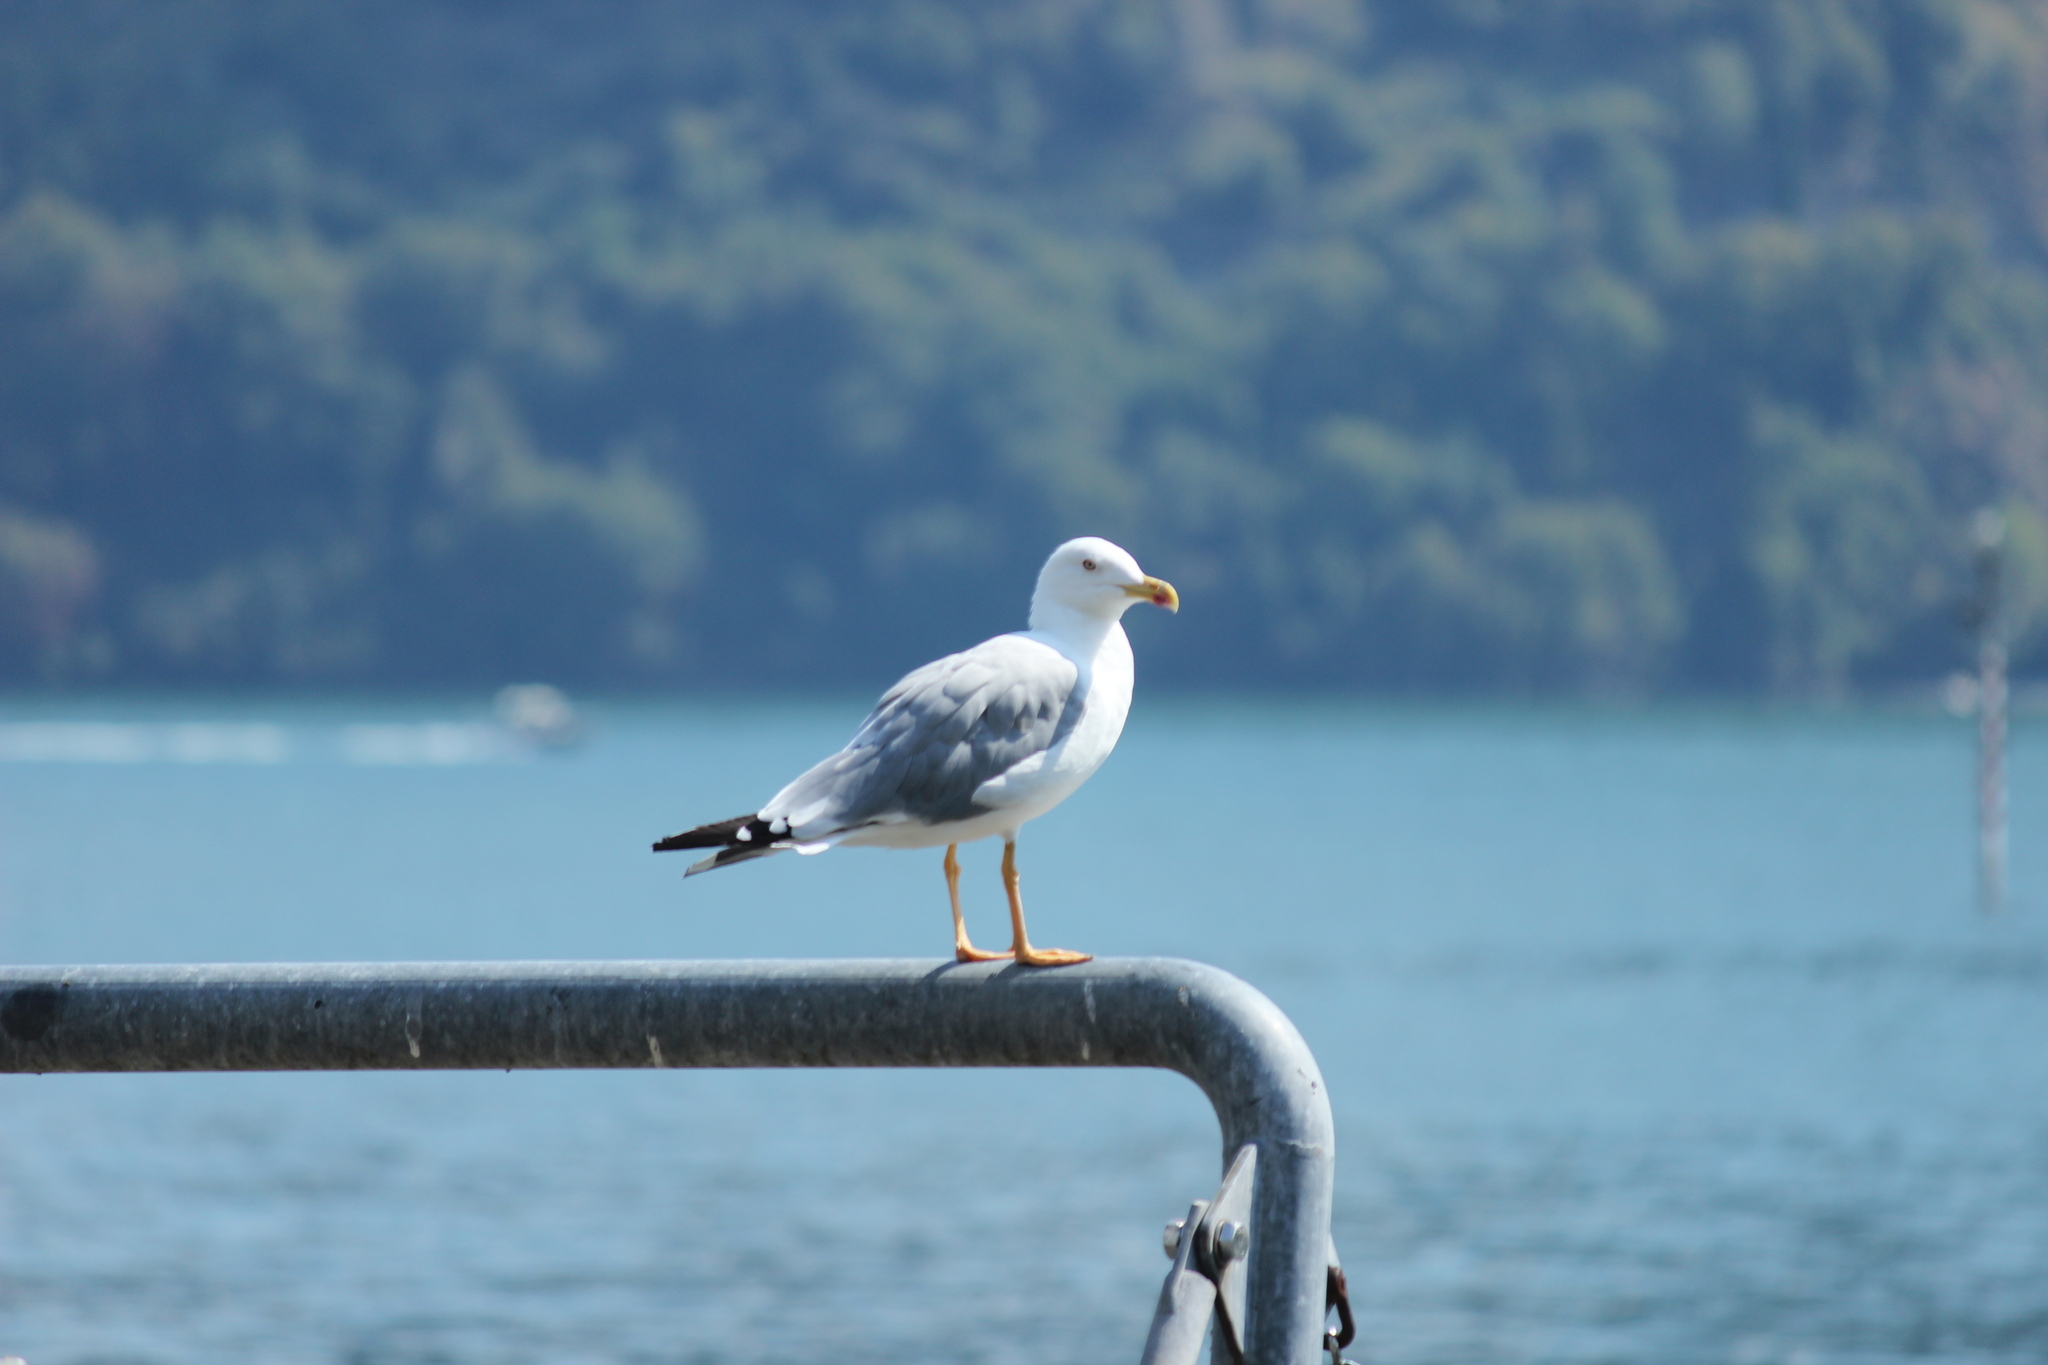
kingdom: Animalia
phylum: Chordata
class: Aves
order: Charadriiformes
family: Laridae
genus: Larus
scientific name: Larus michahellis
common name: Yellow-legged gull
